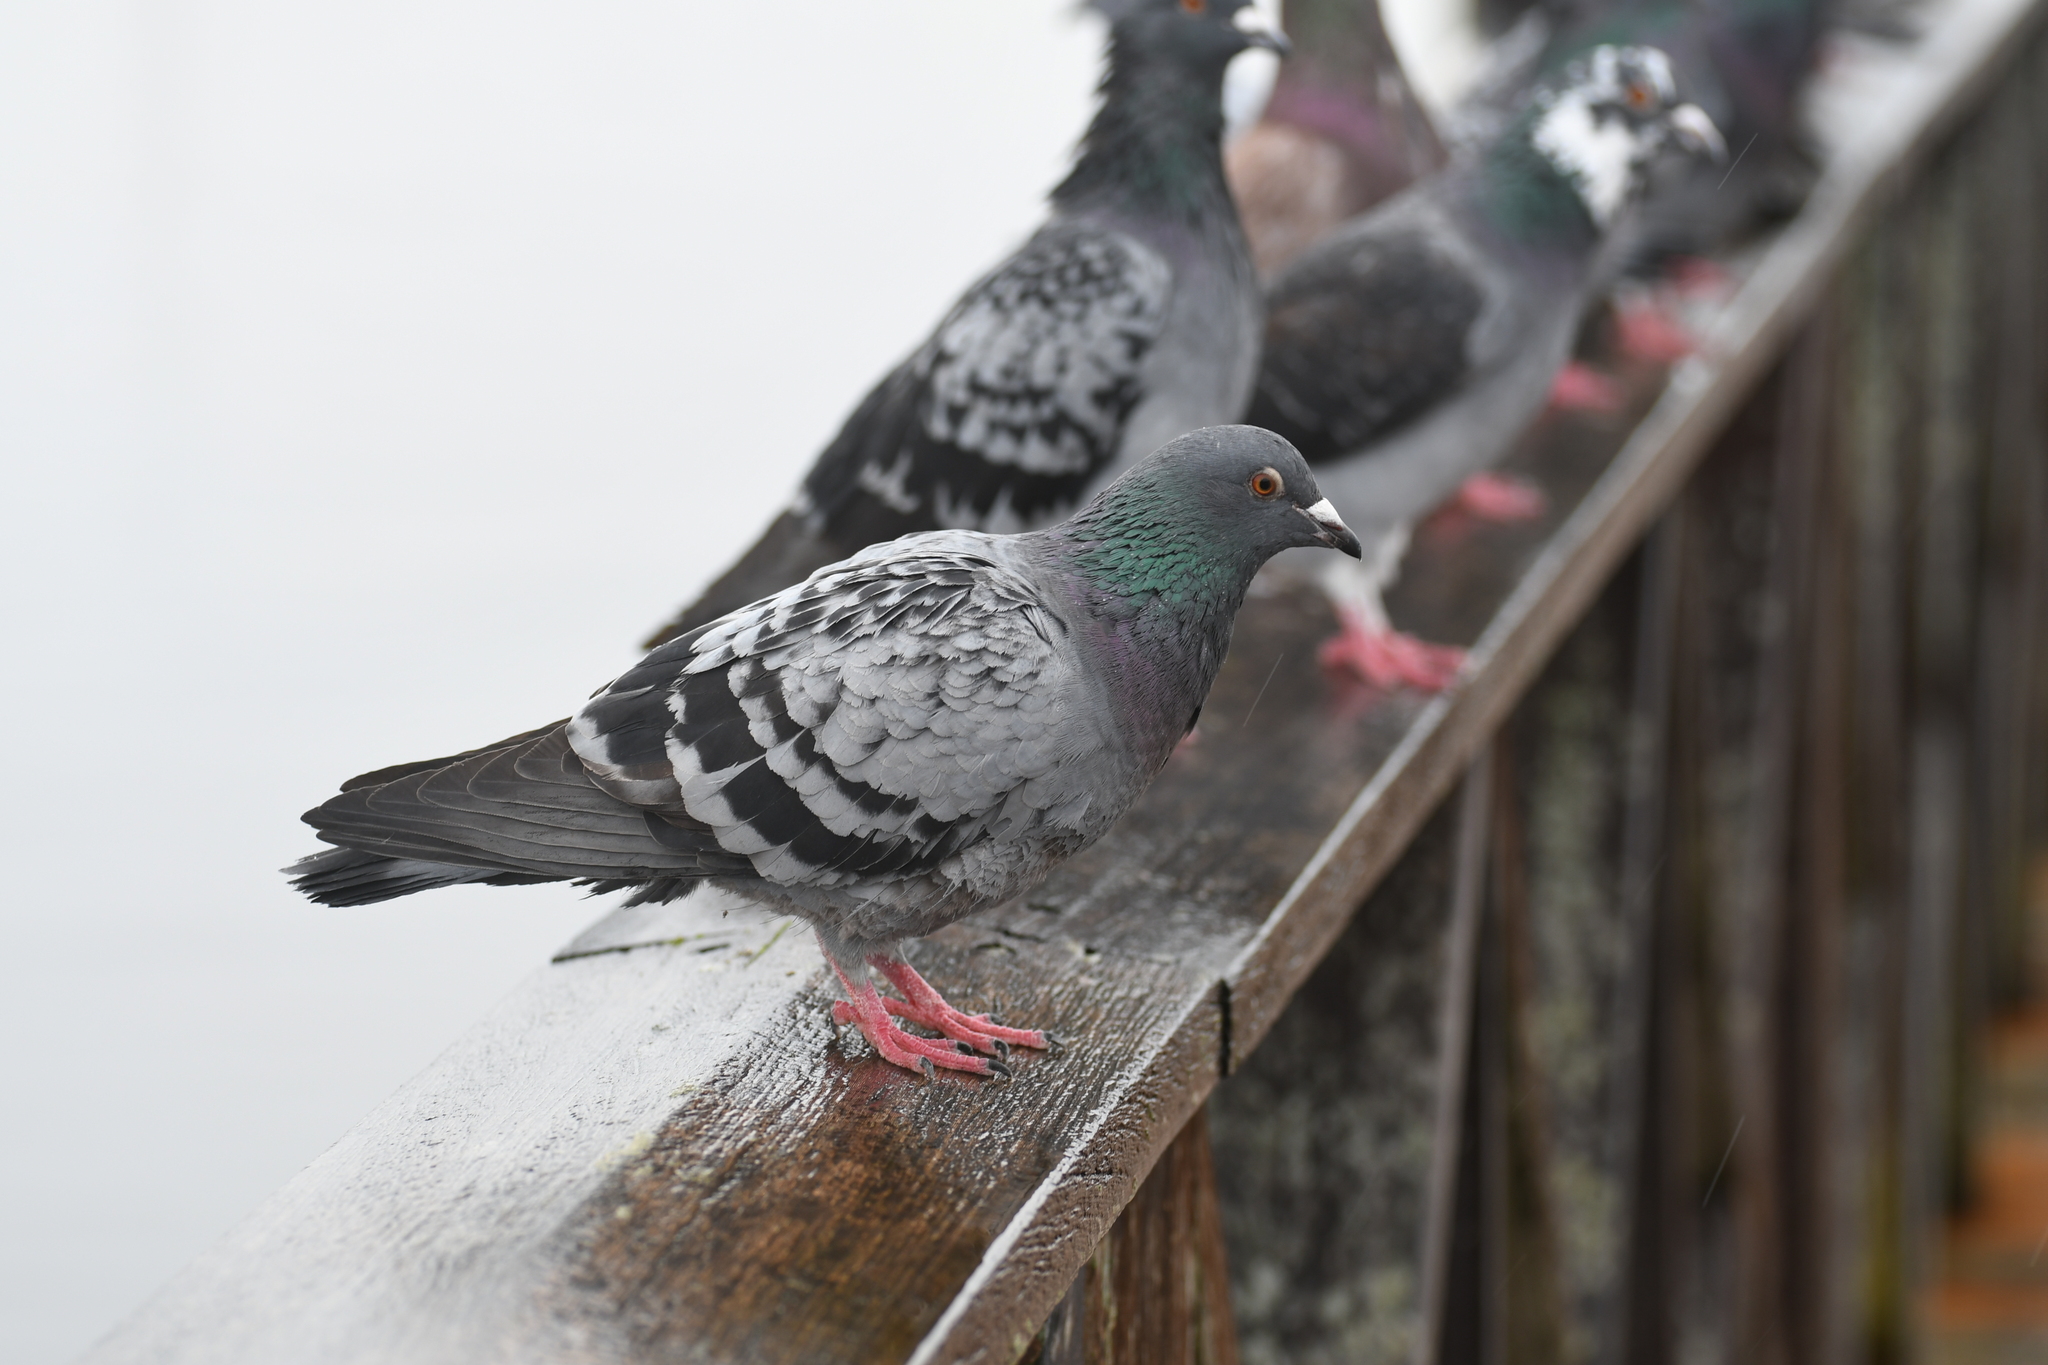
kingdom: Animalia
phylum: Chordata
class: Aves
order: Columbiformes
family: Columbidae
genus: Columba
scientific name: Columba livia
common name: Rock pigeon
